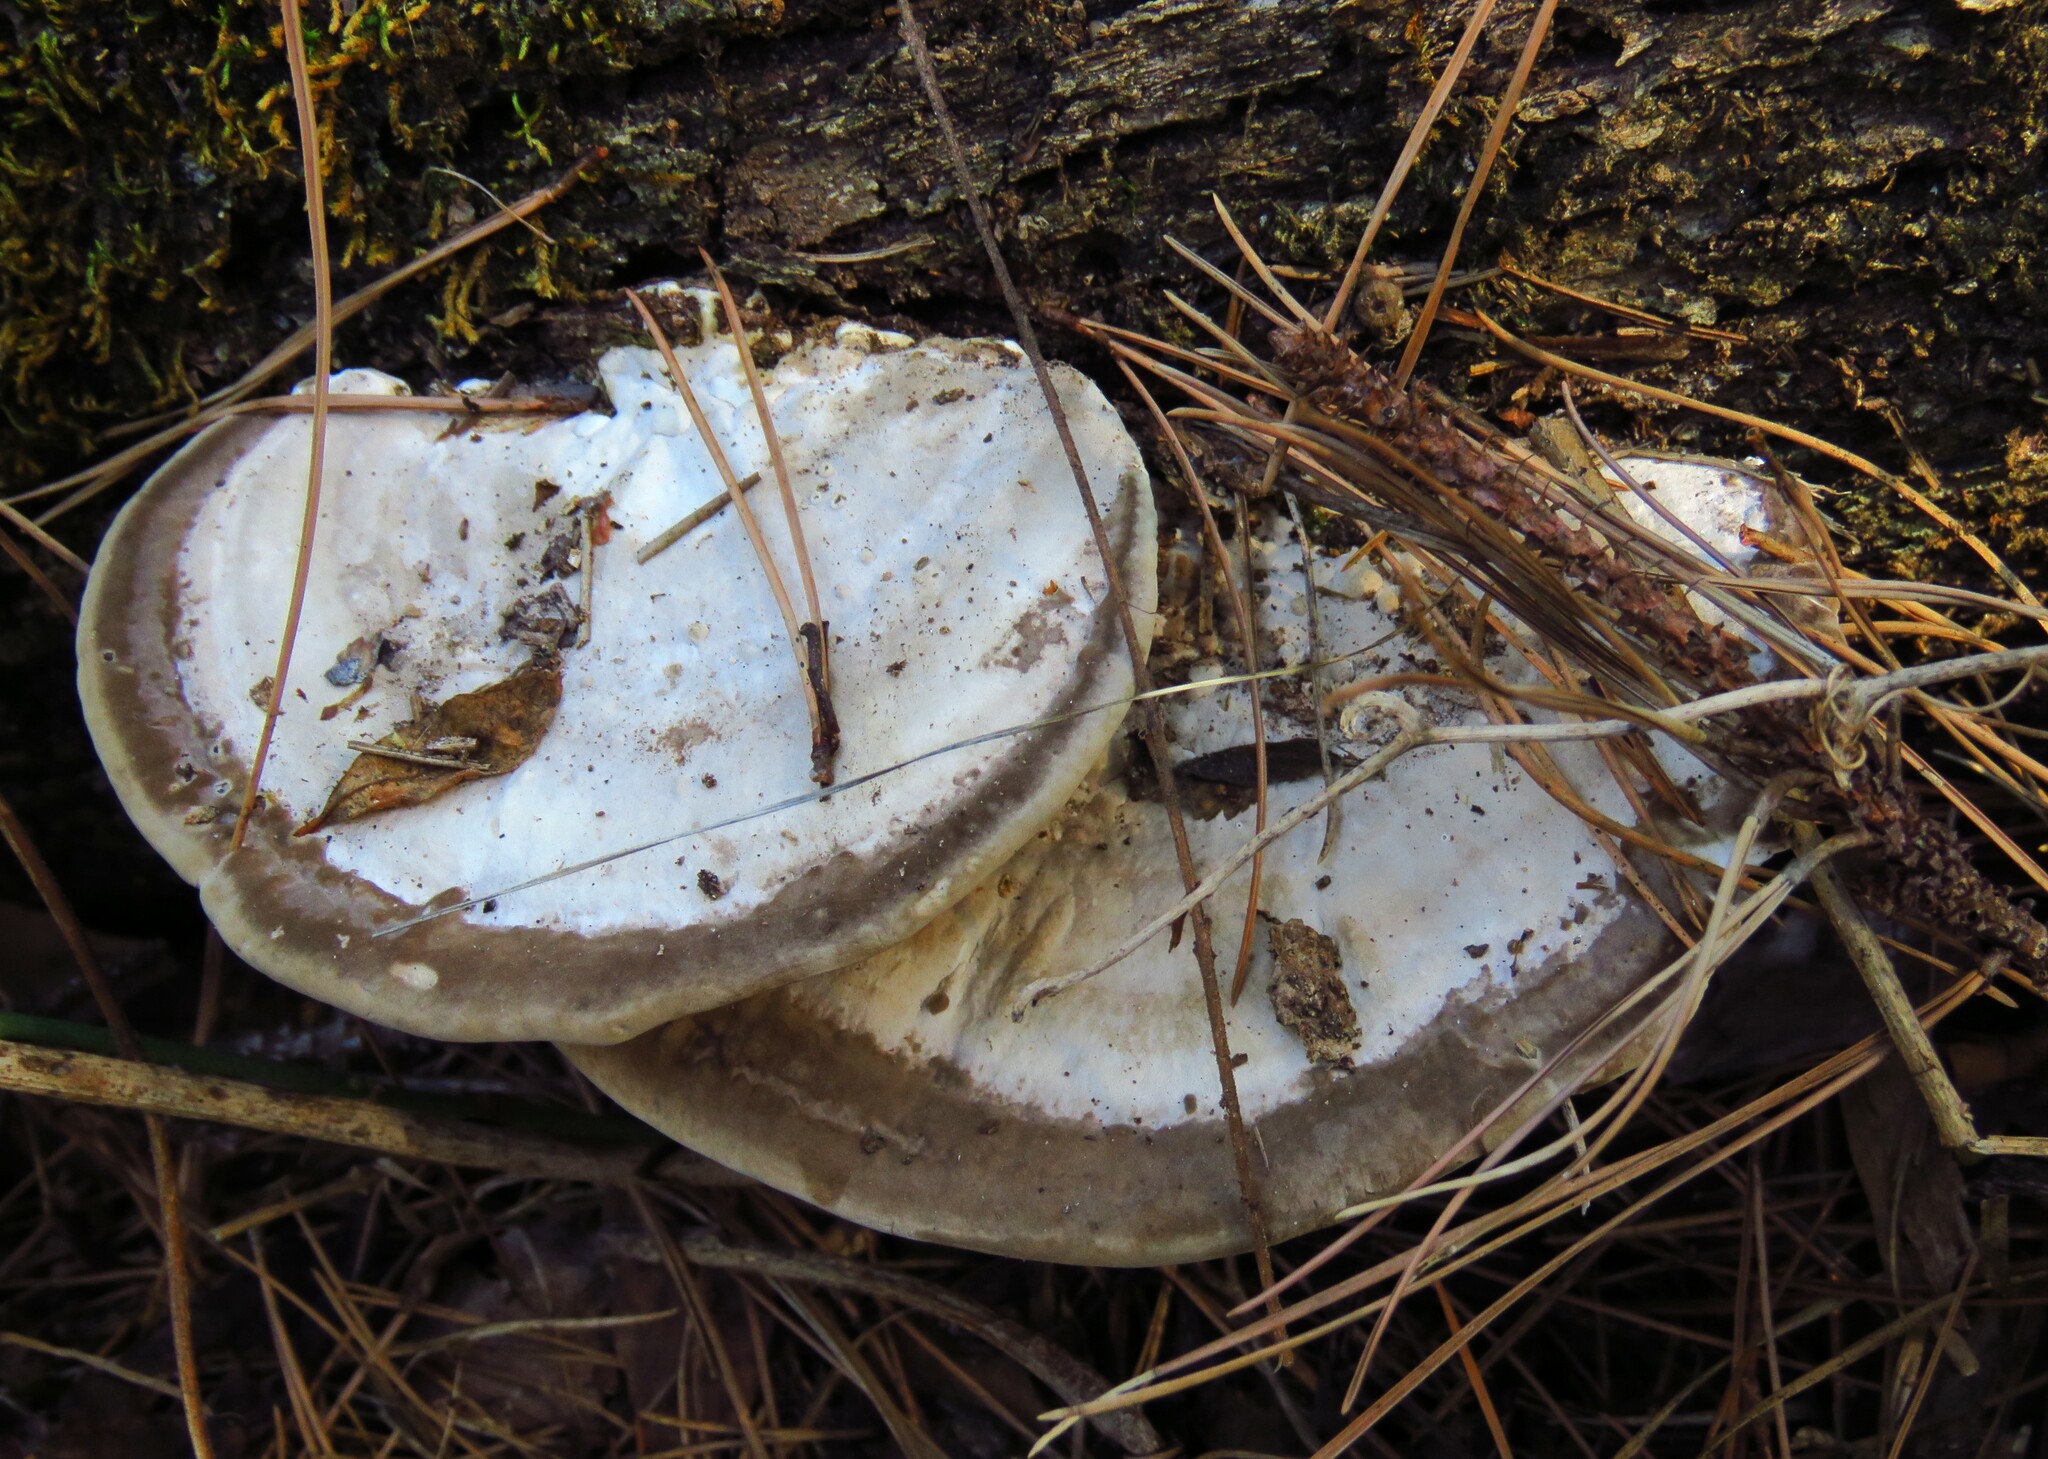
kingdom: Fungi
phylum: Basidiomycota
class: Agaricomycetes
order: Polyporales
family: Polyporaceae
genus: Trametes
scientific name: Trametes lactinea
